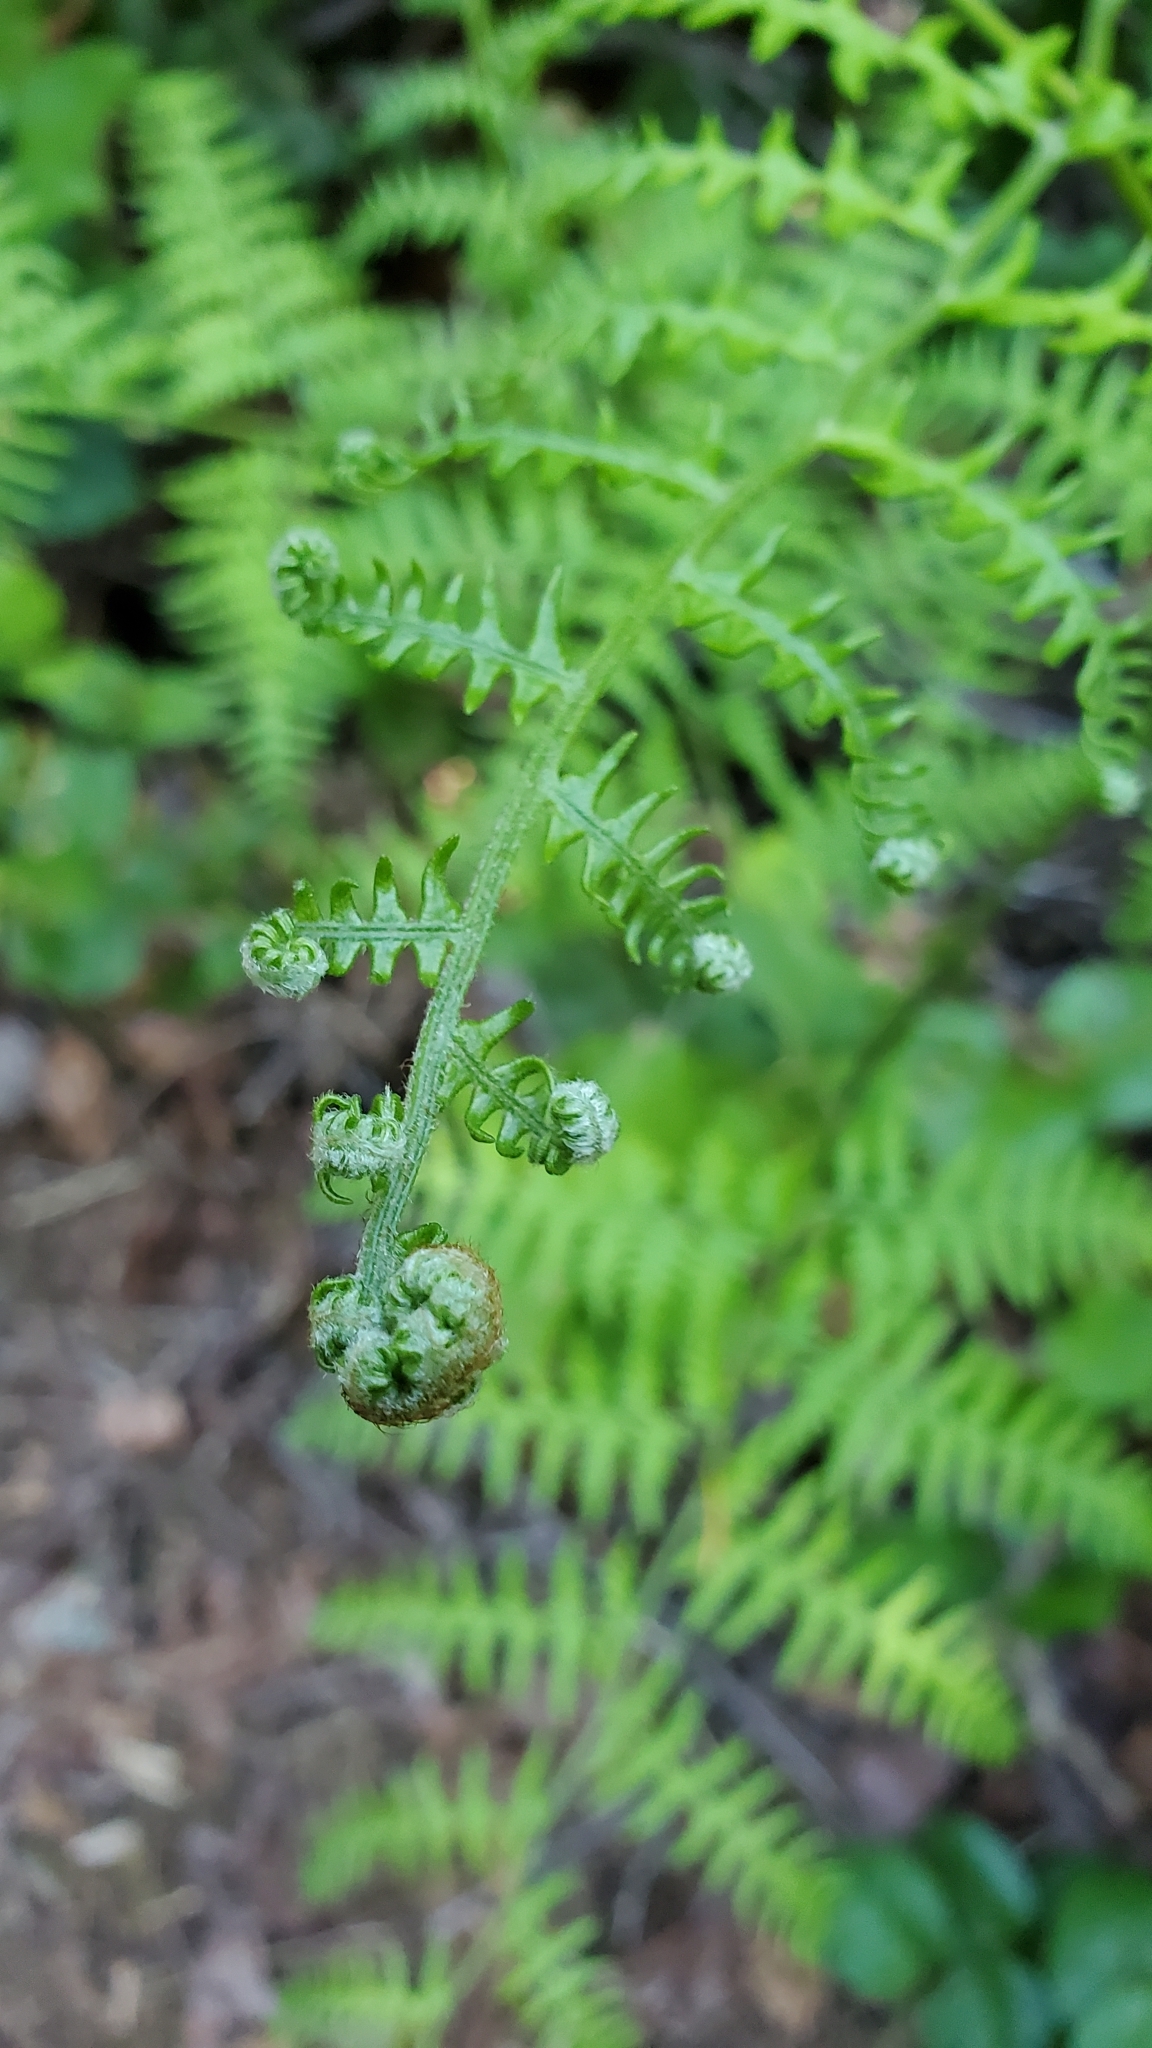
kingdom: Plantae
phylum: Tracheophyta
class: Polypodiopsida
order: Polypodiales
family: Dennstaedtiaceae
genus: Pteridium
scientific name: Pteridium aquilinum
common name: Bracken
